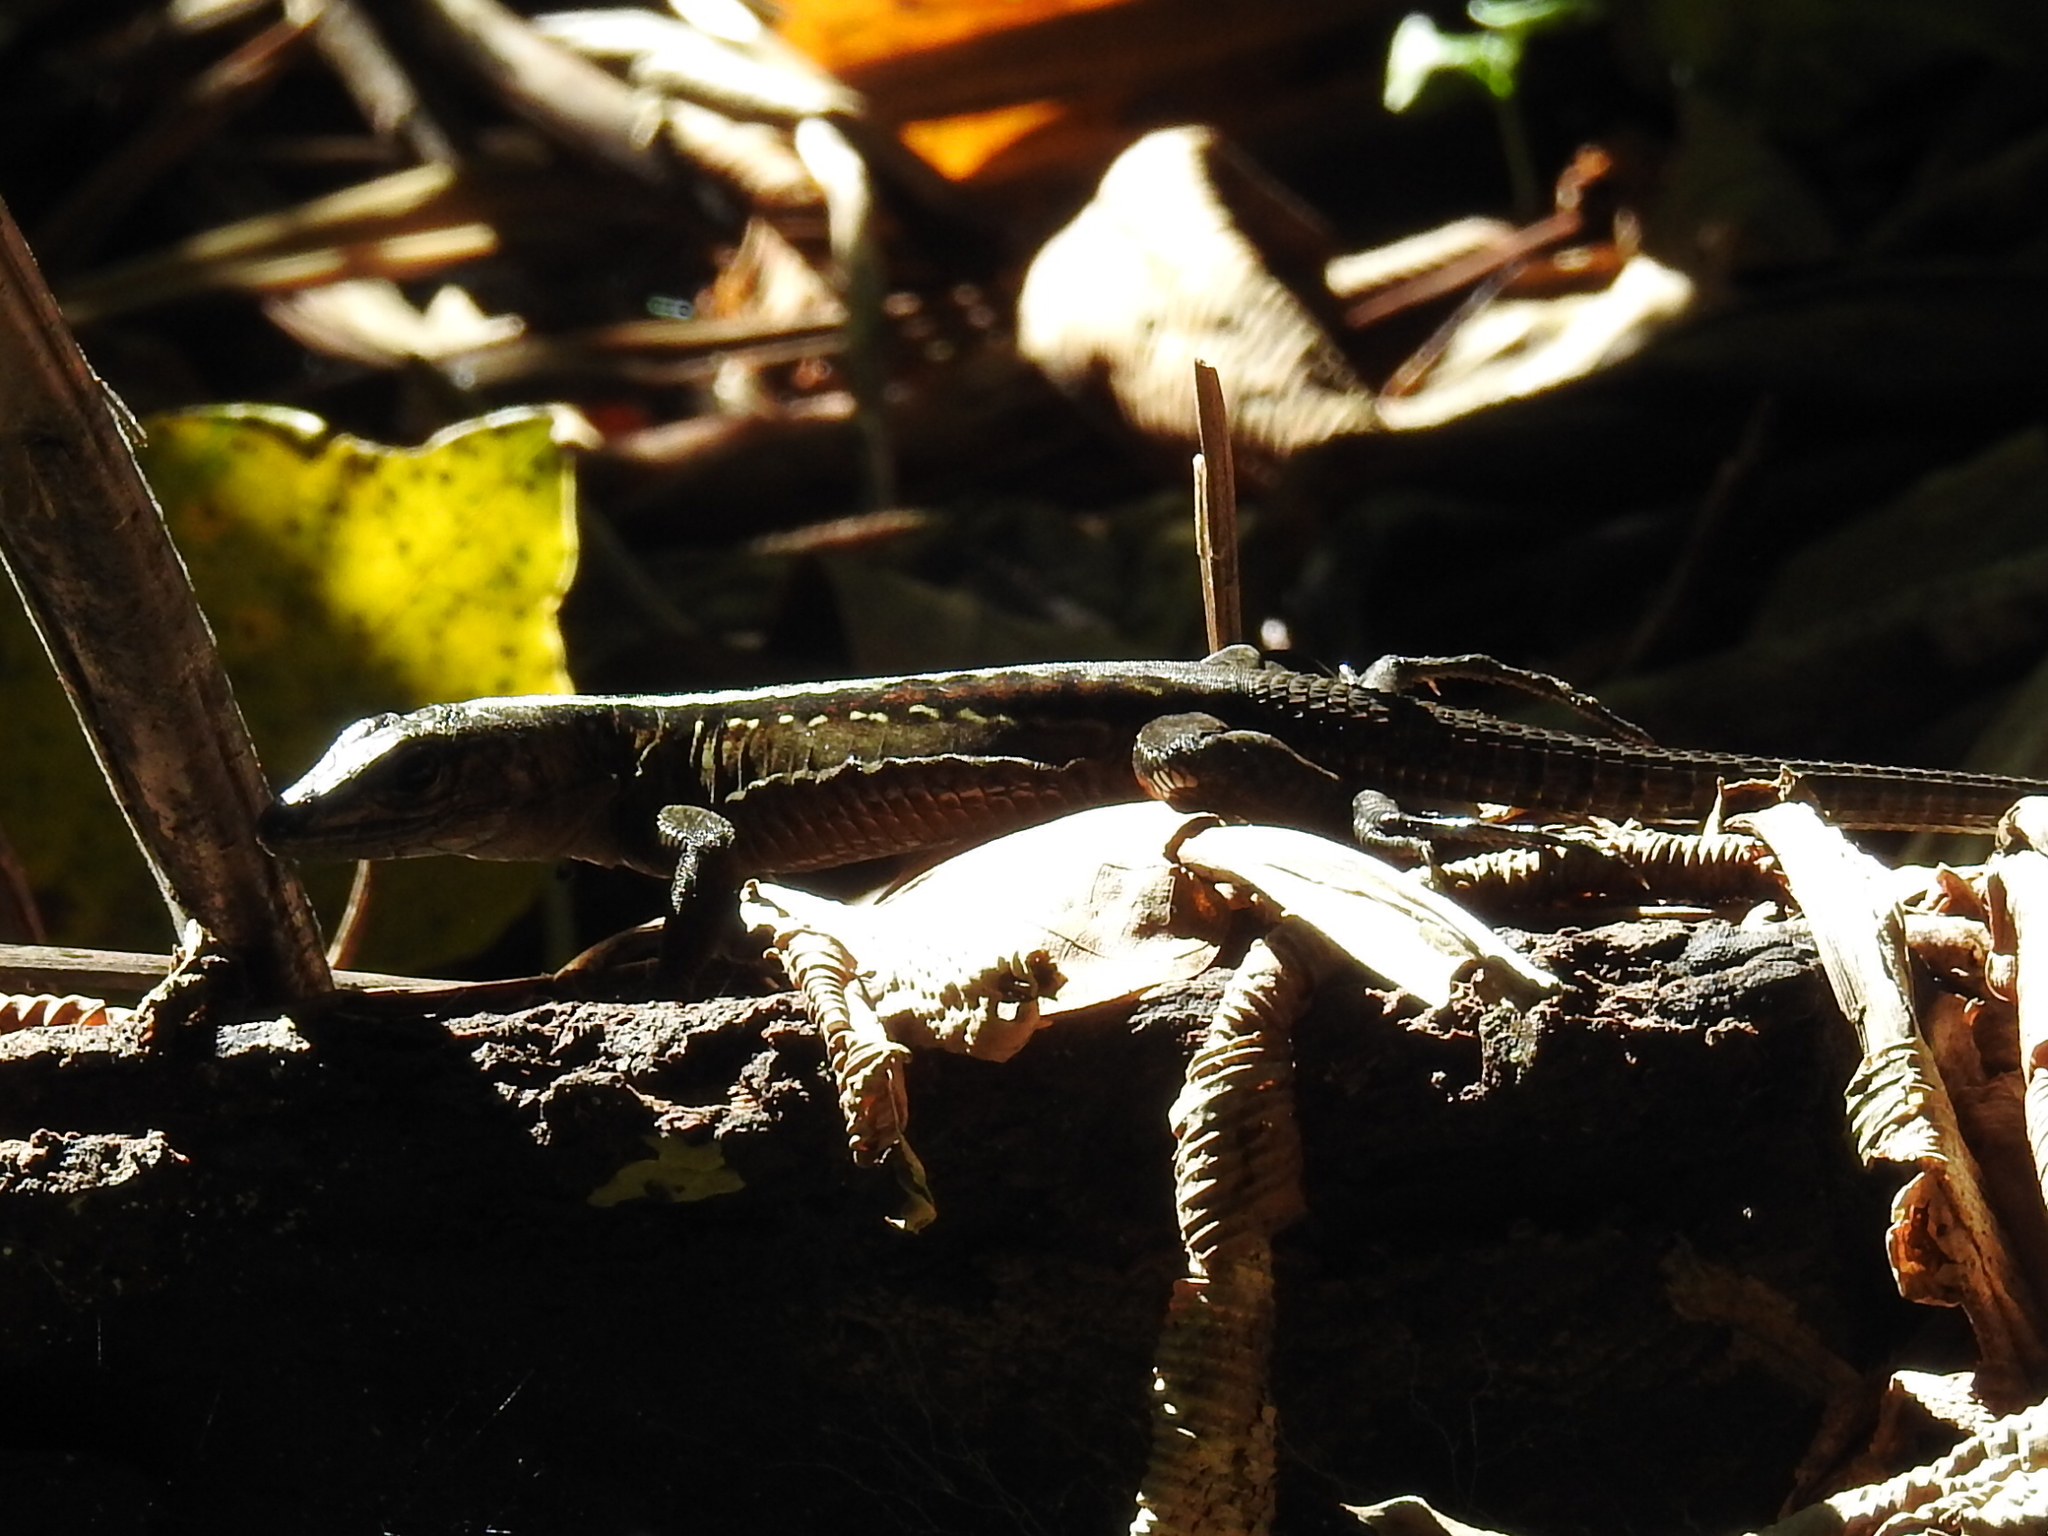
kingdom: Animalia
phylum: Chordata
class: Squamata
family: Teiidae
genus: Holcosus
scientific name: Holcosus festivus
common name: Middle american ameiva
